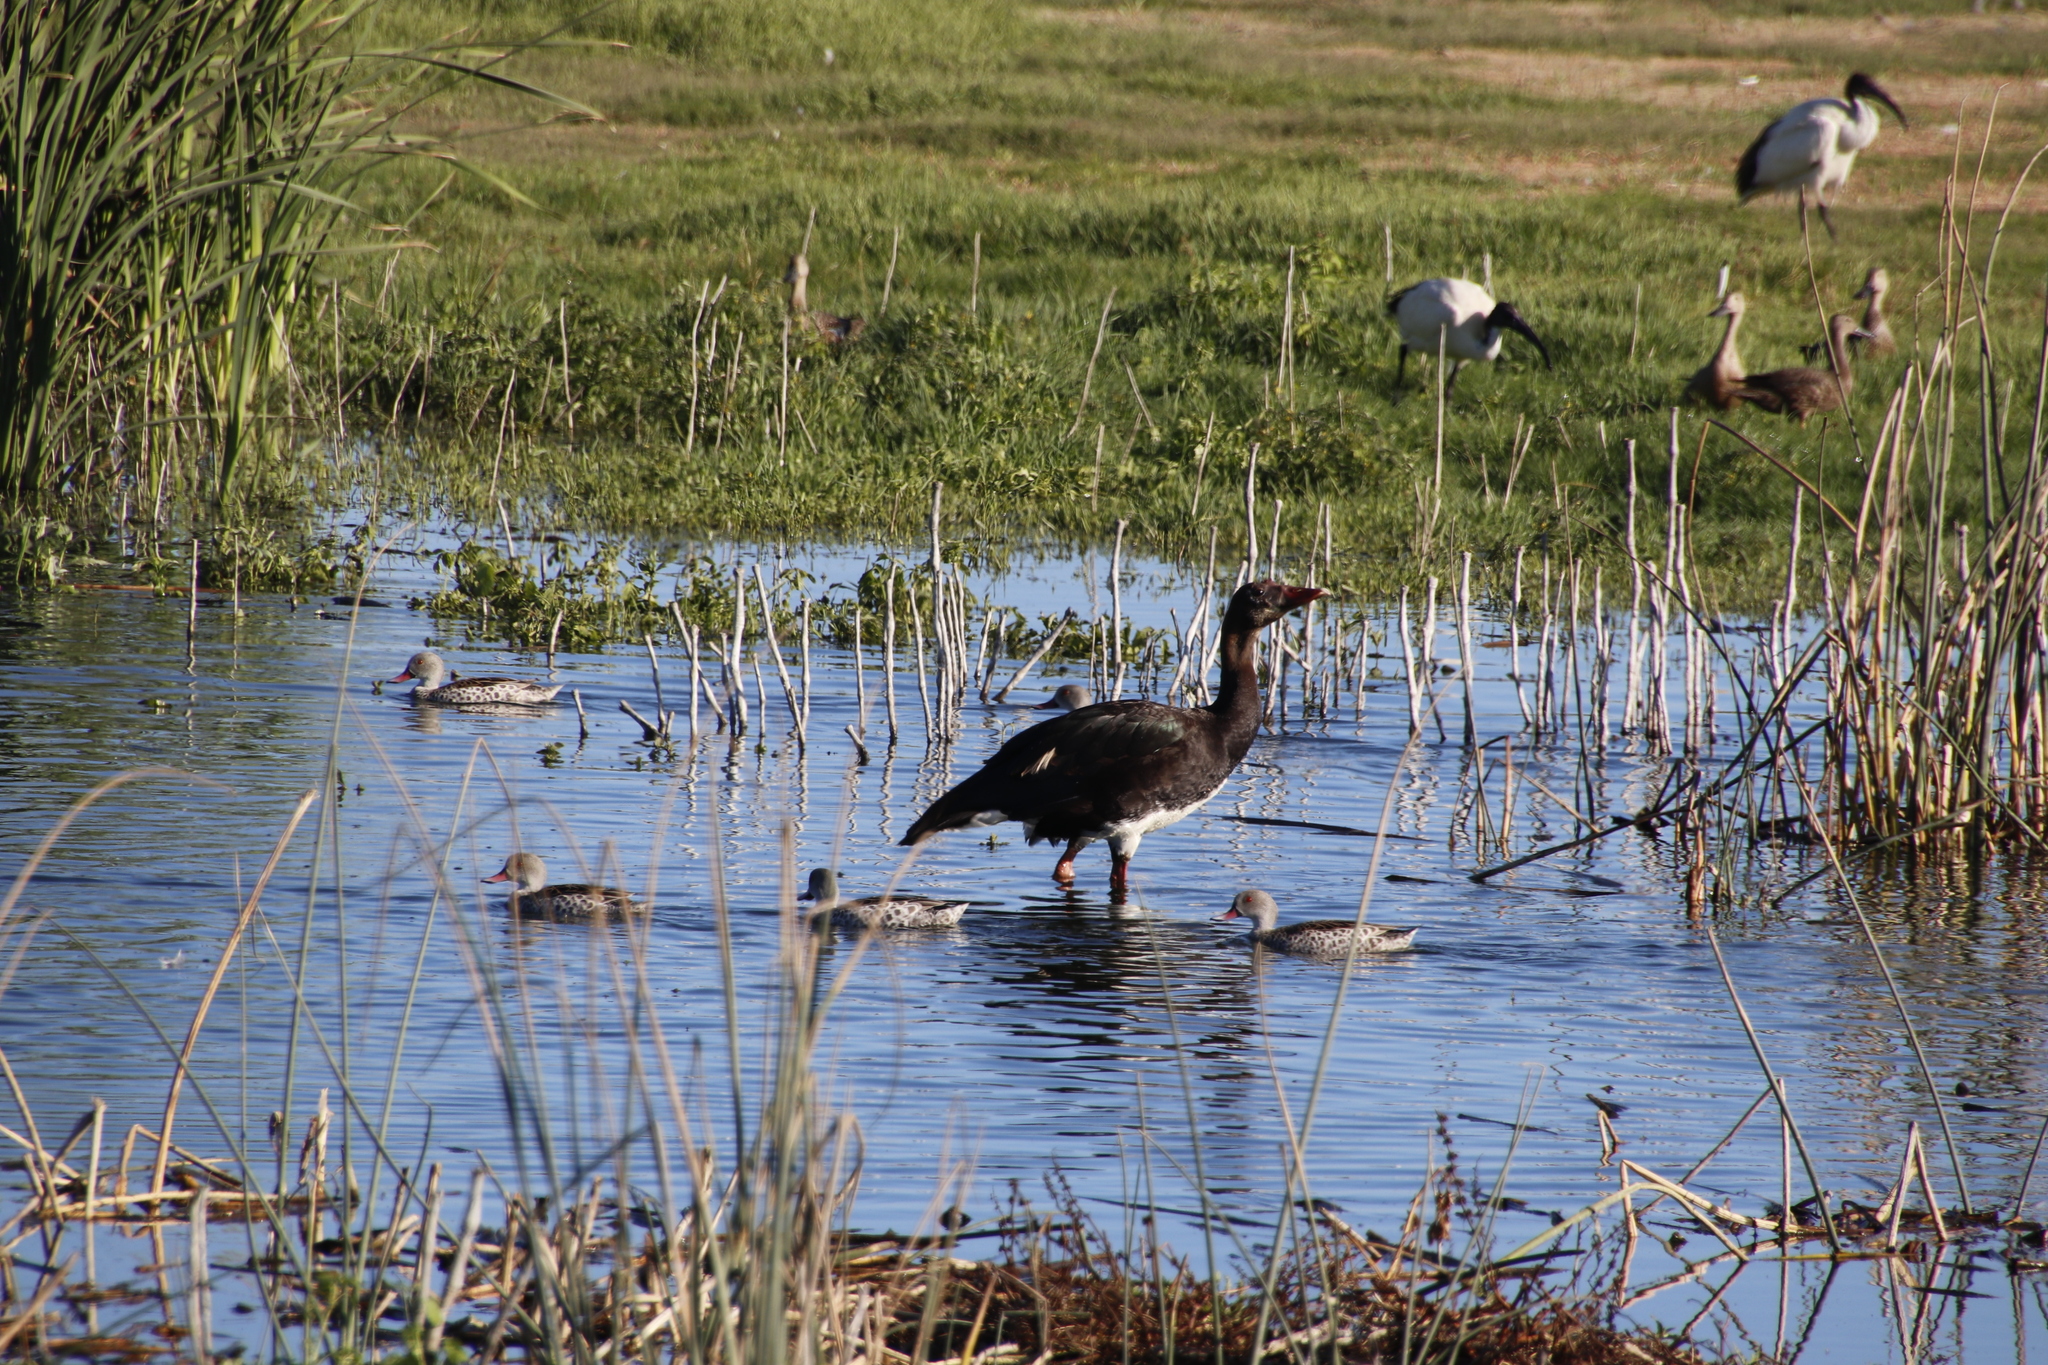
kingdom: Animalia
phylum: Chordata
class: Aves
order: Anseriformes
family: Anatidae
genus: Plectropterus
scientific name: Plectropterus gambensis
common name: Spur-winged goose
